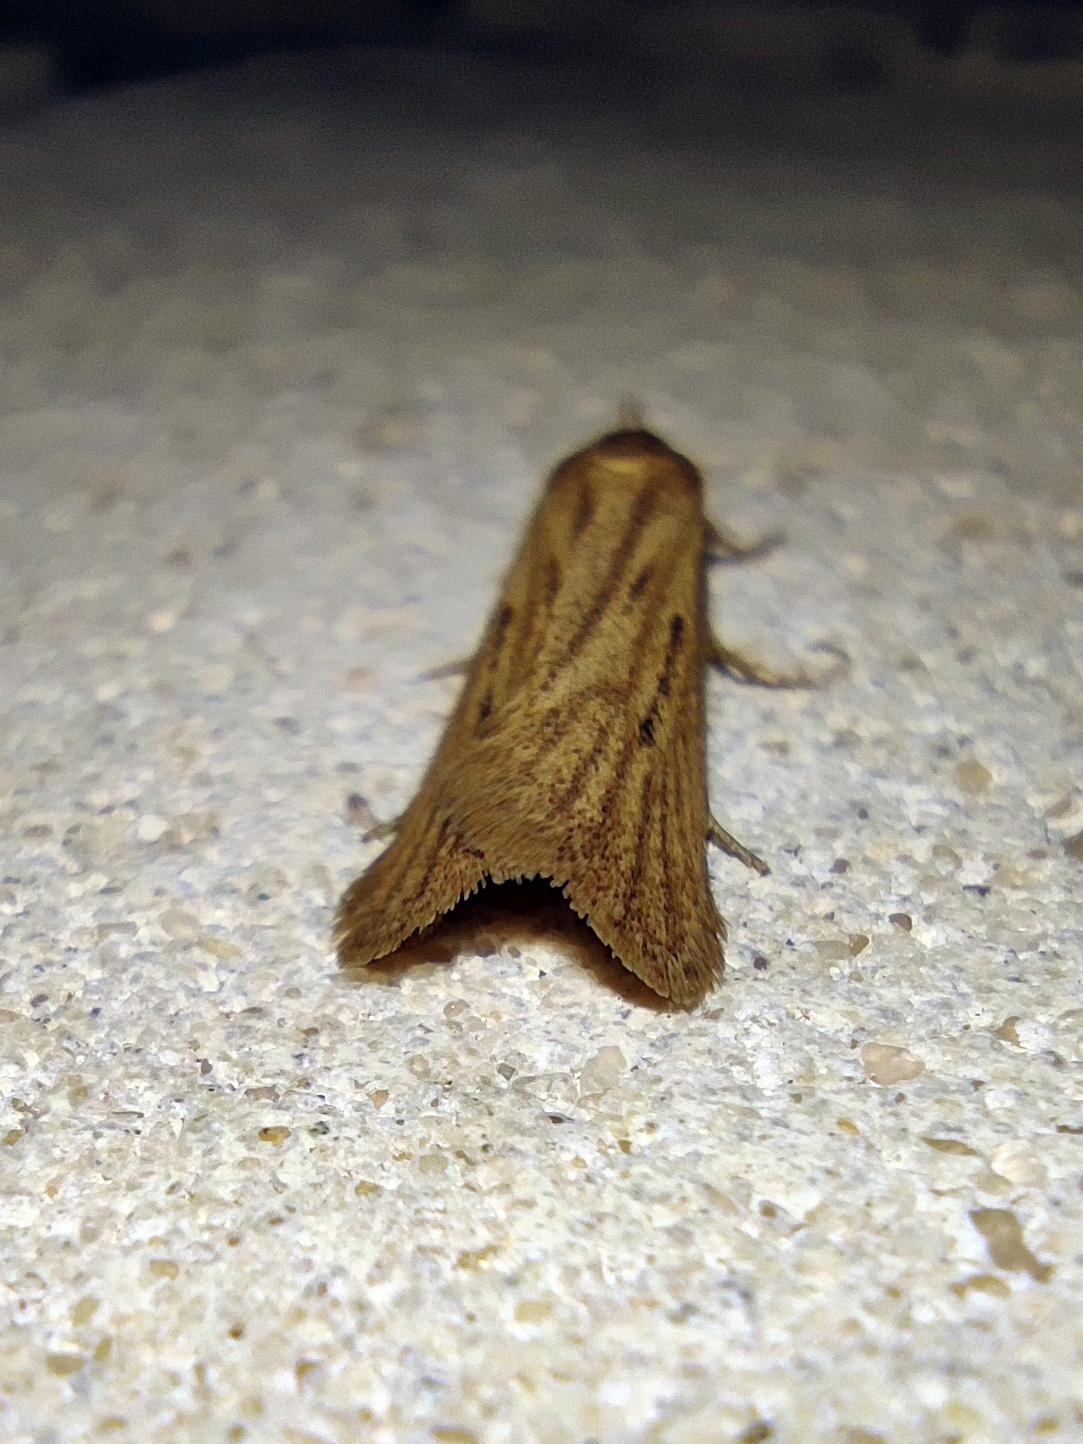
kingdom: Animalia
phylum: Arthropoda
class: Insecta
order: Lepidoptera
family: Autostichidae
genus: Deroxena
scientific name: Deroxena venosulella
